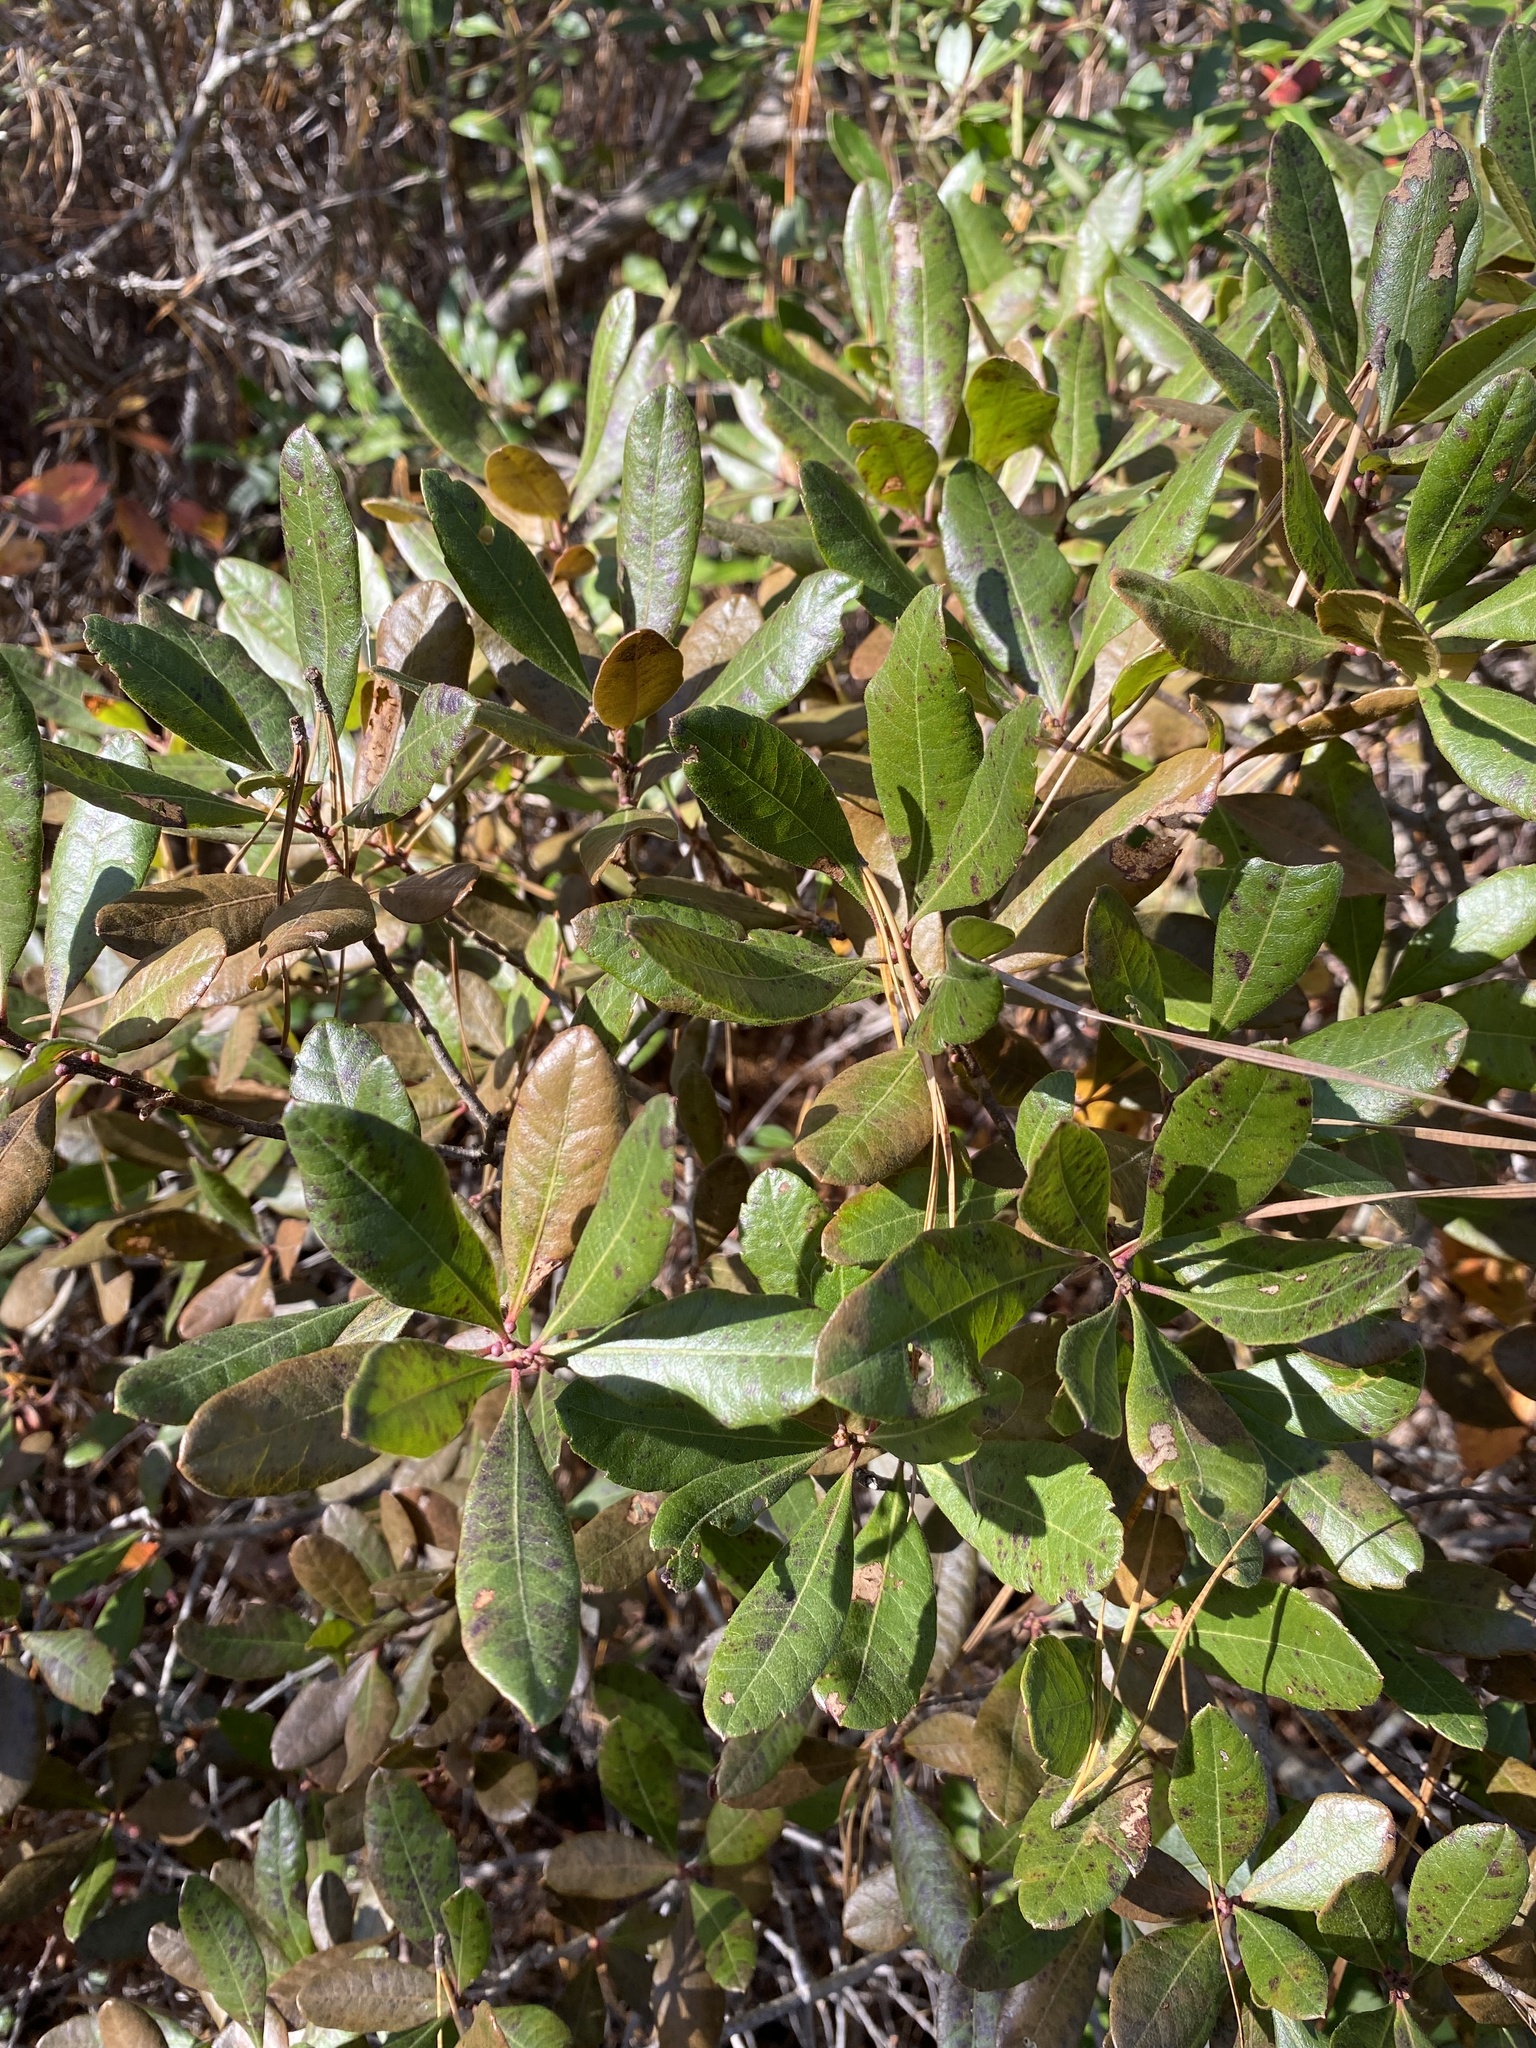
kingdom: Plantae
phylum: Tracheophyta
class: Magnoliopsida
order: Fagales
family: Myricaceae
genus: Morella
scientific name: Morella pensylvanica
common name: Northern bayberry
